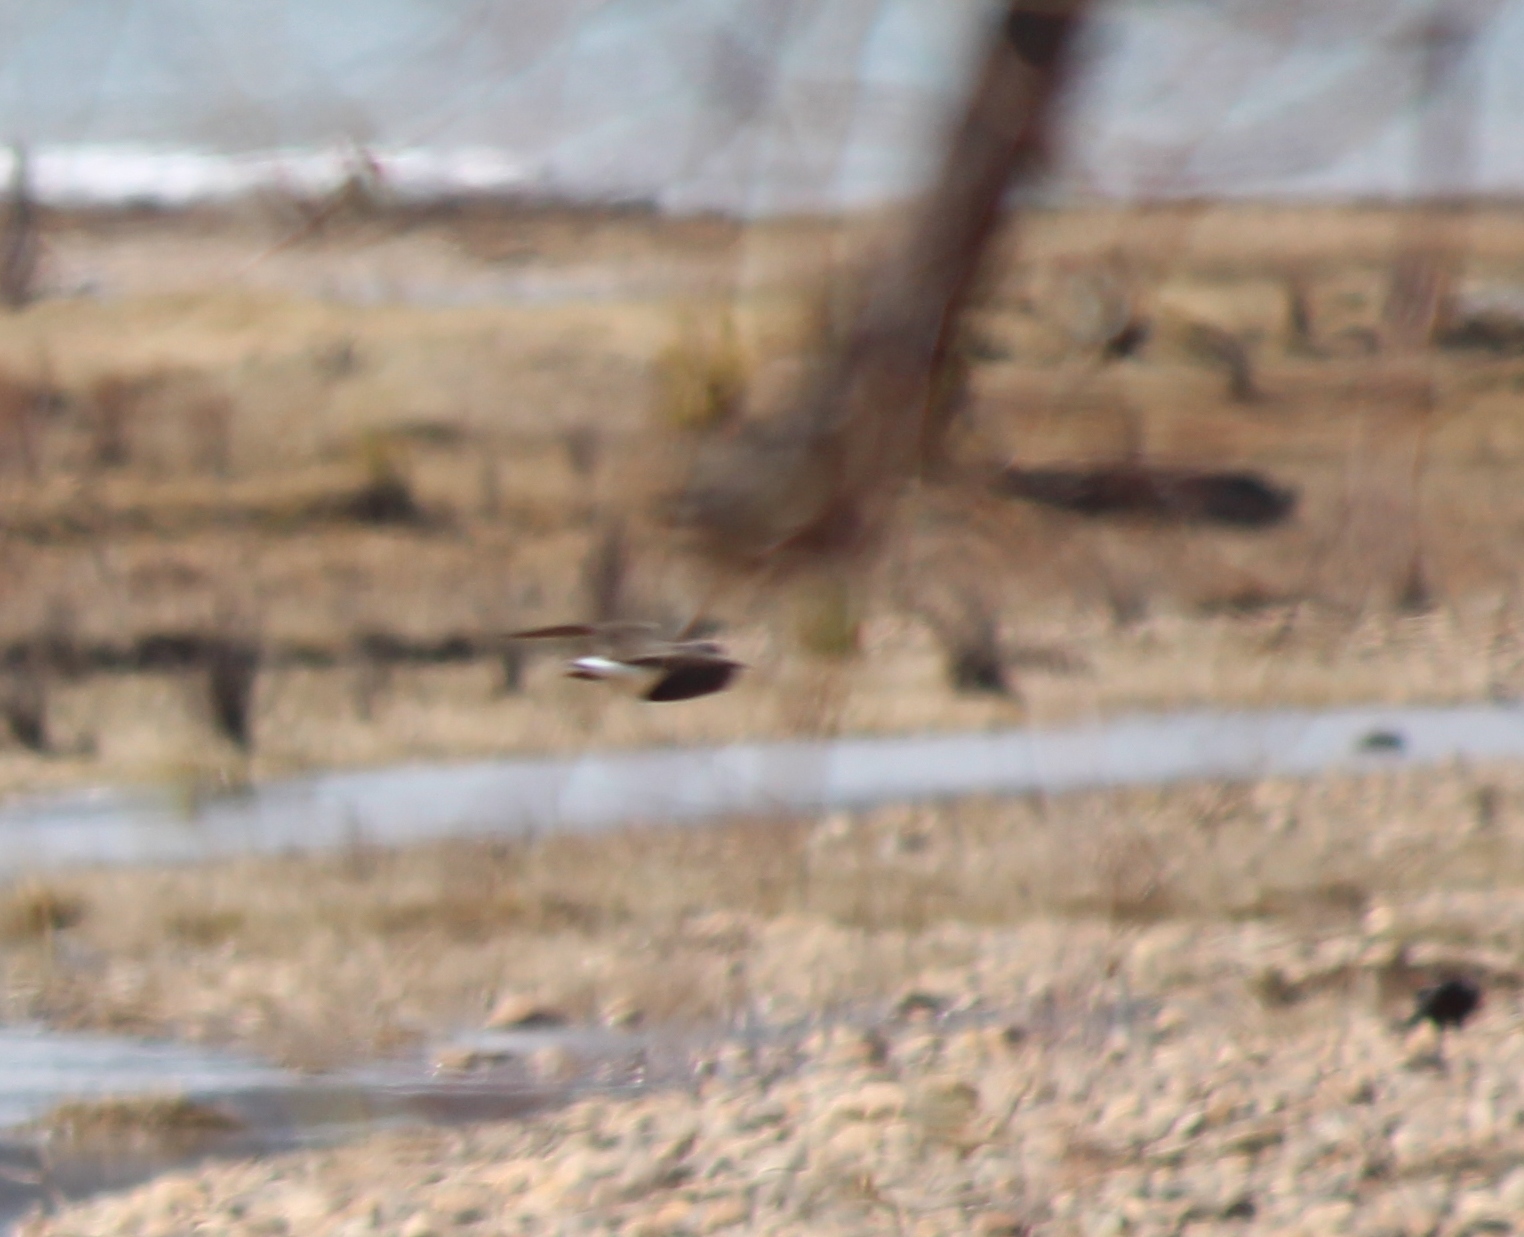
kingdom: Animalia
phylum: Chordata
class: Aves
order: Charadriiformes
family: Scolopacidae
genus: Tringa
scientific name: Tringa ochropus
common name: Green sandpiper
